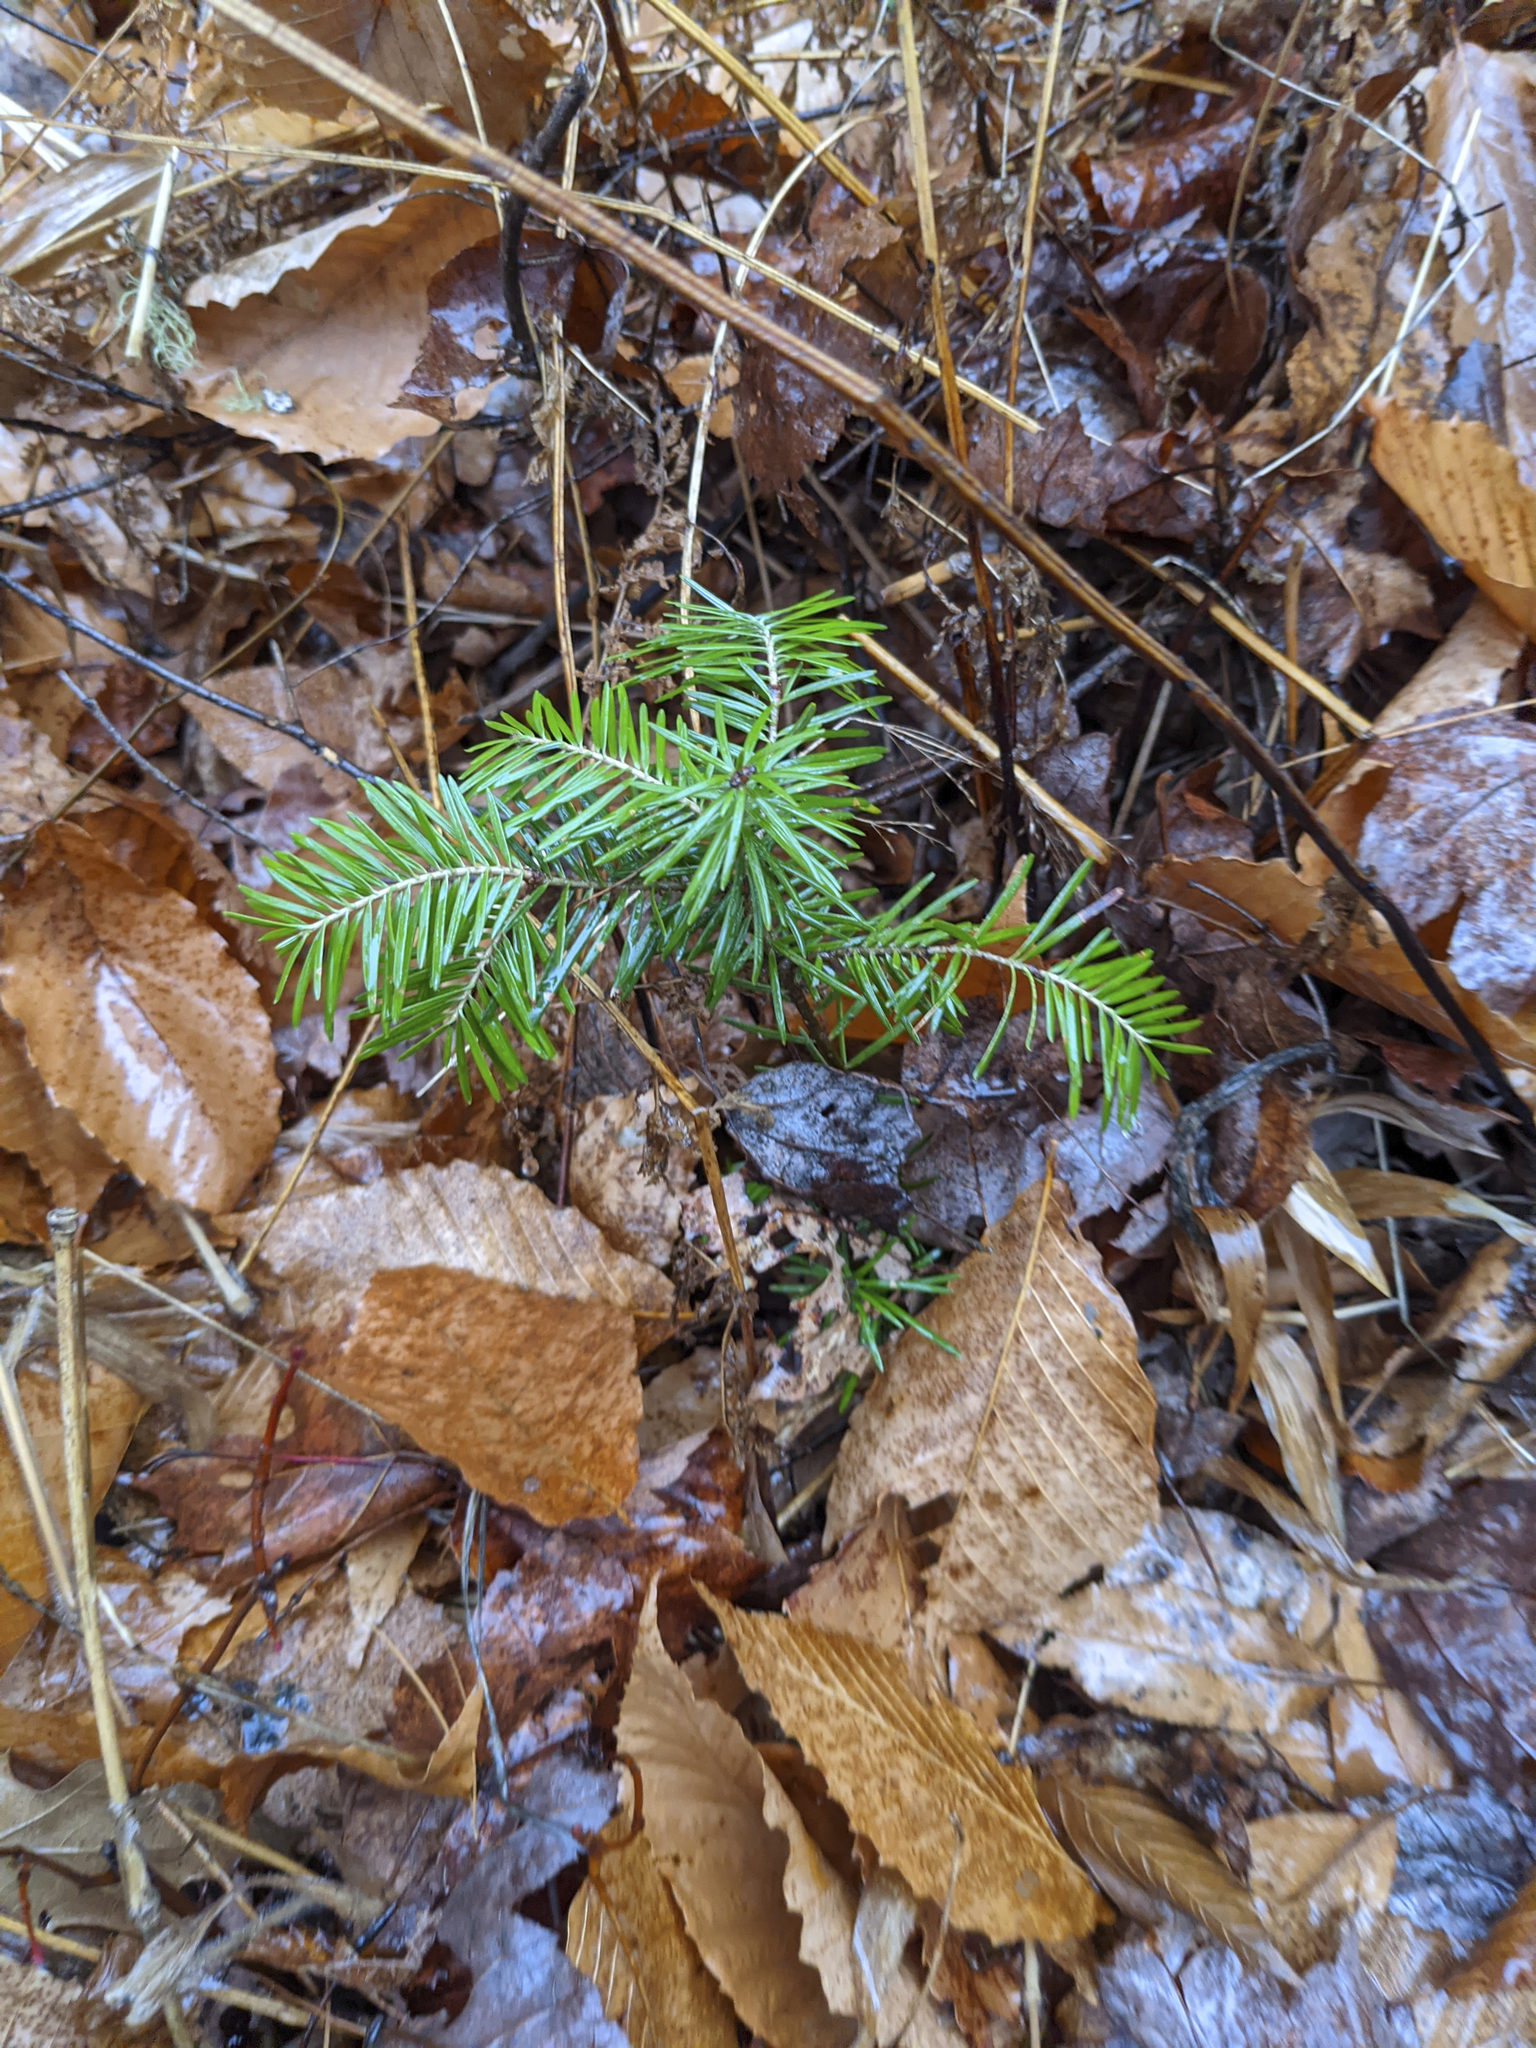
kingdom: Plantae
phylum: Tracheophyta
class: Pinopsida
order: Pinales
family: Pinaceae
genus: Abies
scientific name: Abies balsamea
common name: Balsam fir
